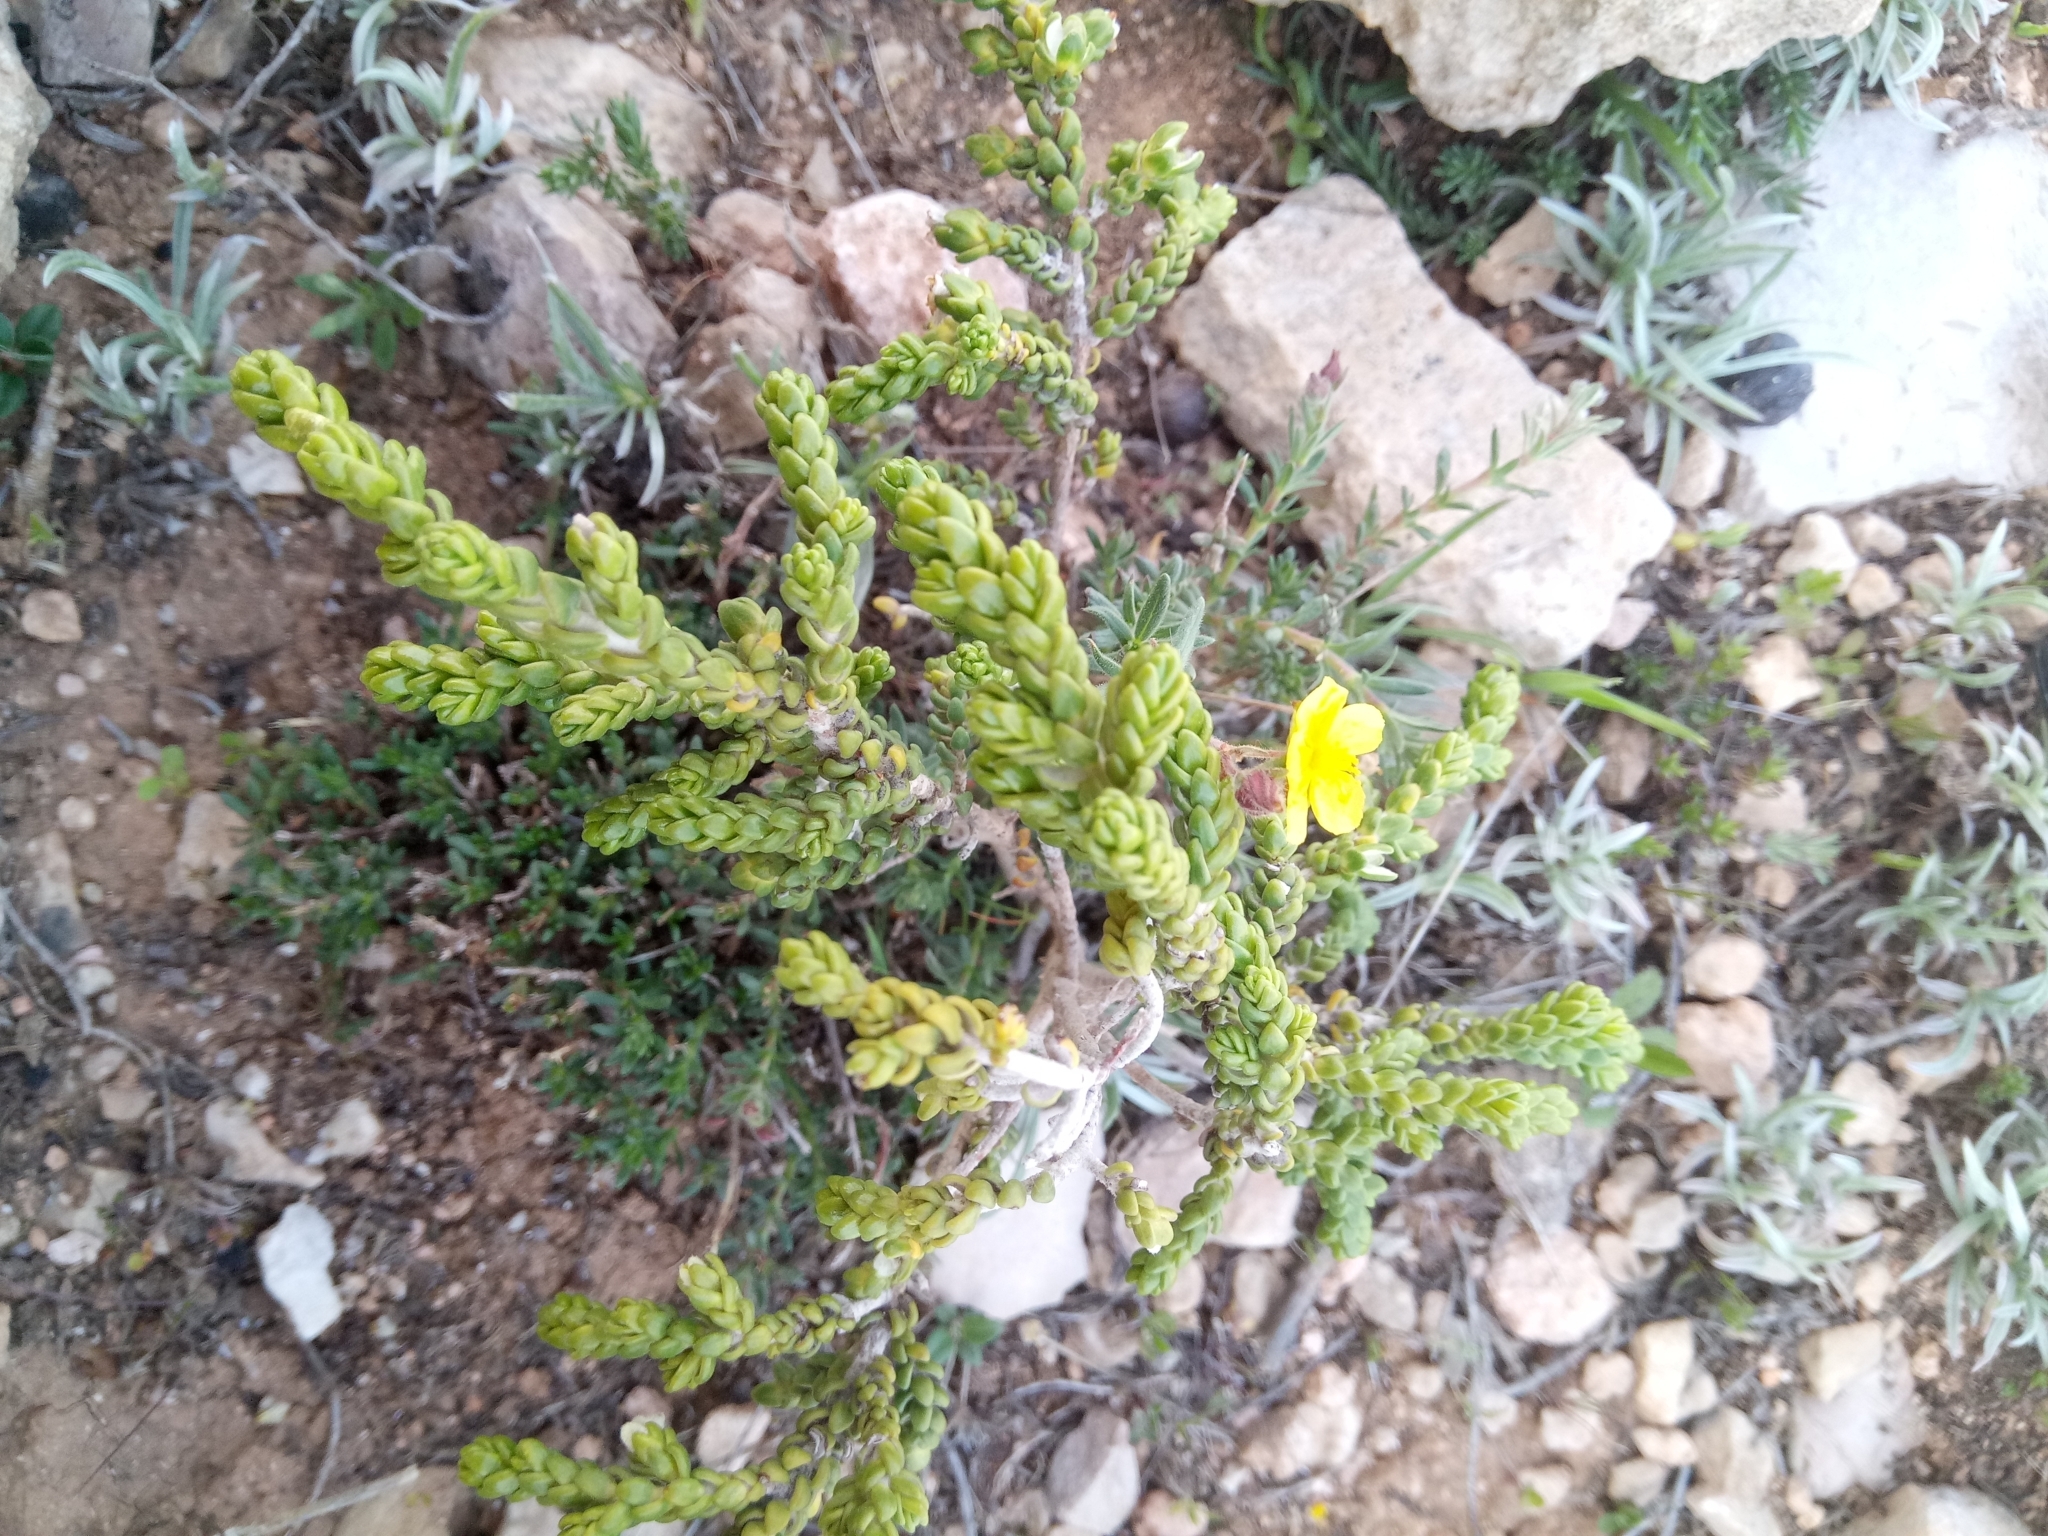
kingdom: Plantae
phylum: Tracheophyta
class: Magnoliopsida
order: Malvales
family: Thymelaeaceae
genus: Thymelaea
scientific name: Thymelaea hirsuta
